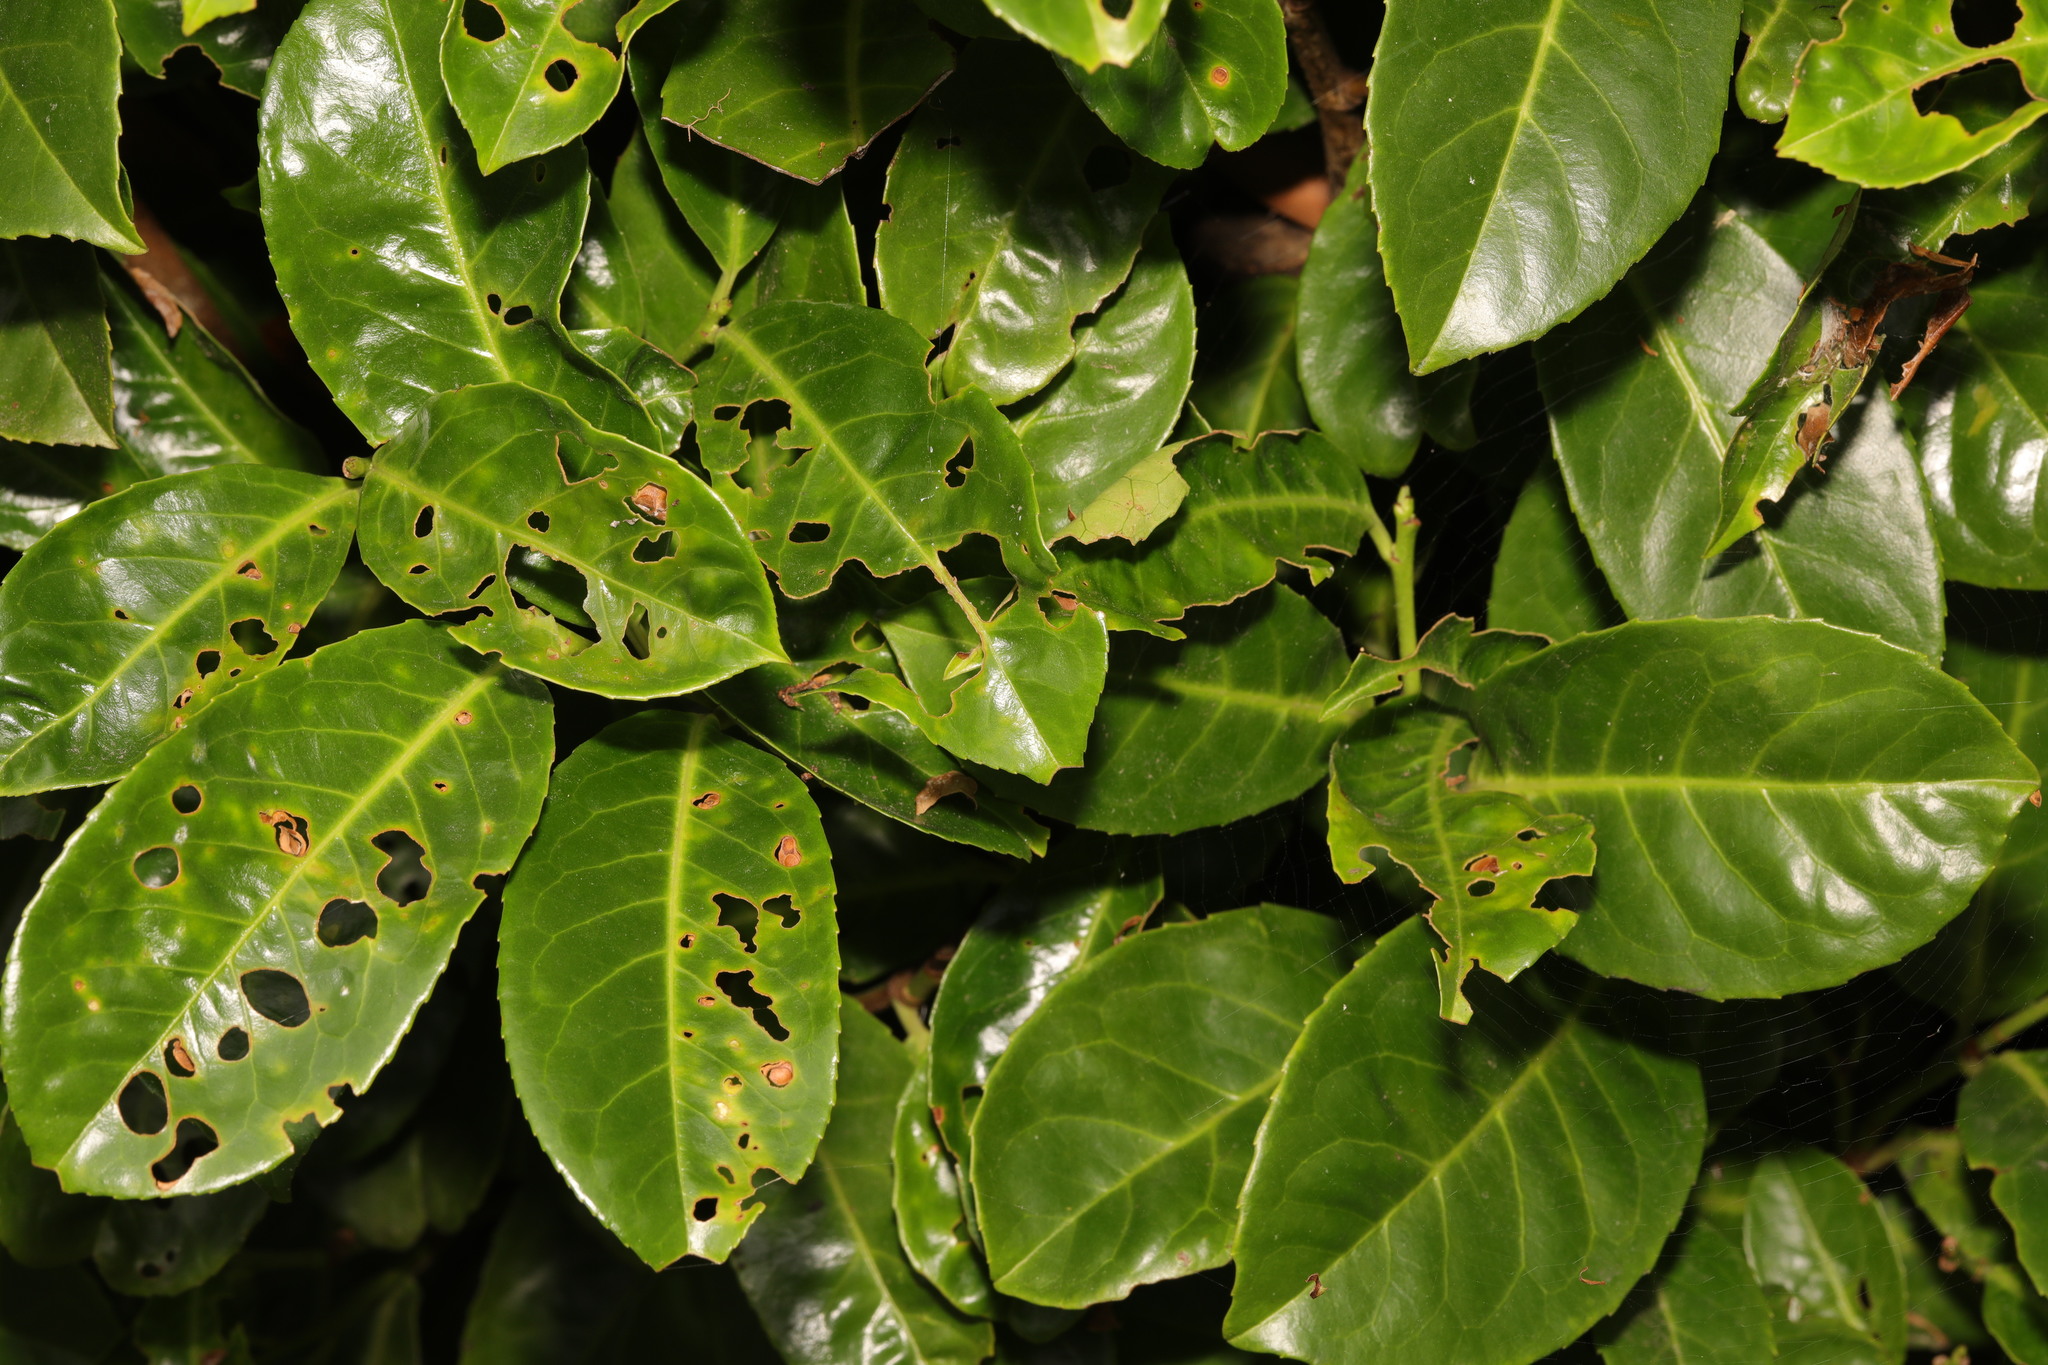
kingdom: Plantae
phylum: Tracheophyta
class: Magnoliopsida
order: Rosales
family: Rosaceae
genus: Prunus
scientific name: Prunus laurocerasus
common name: Cherry laurel
